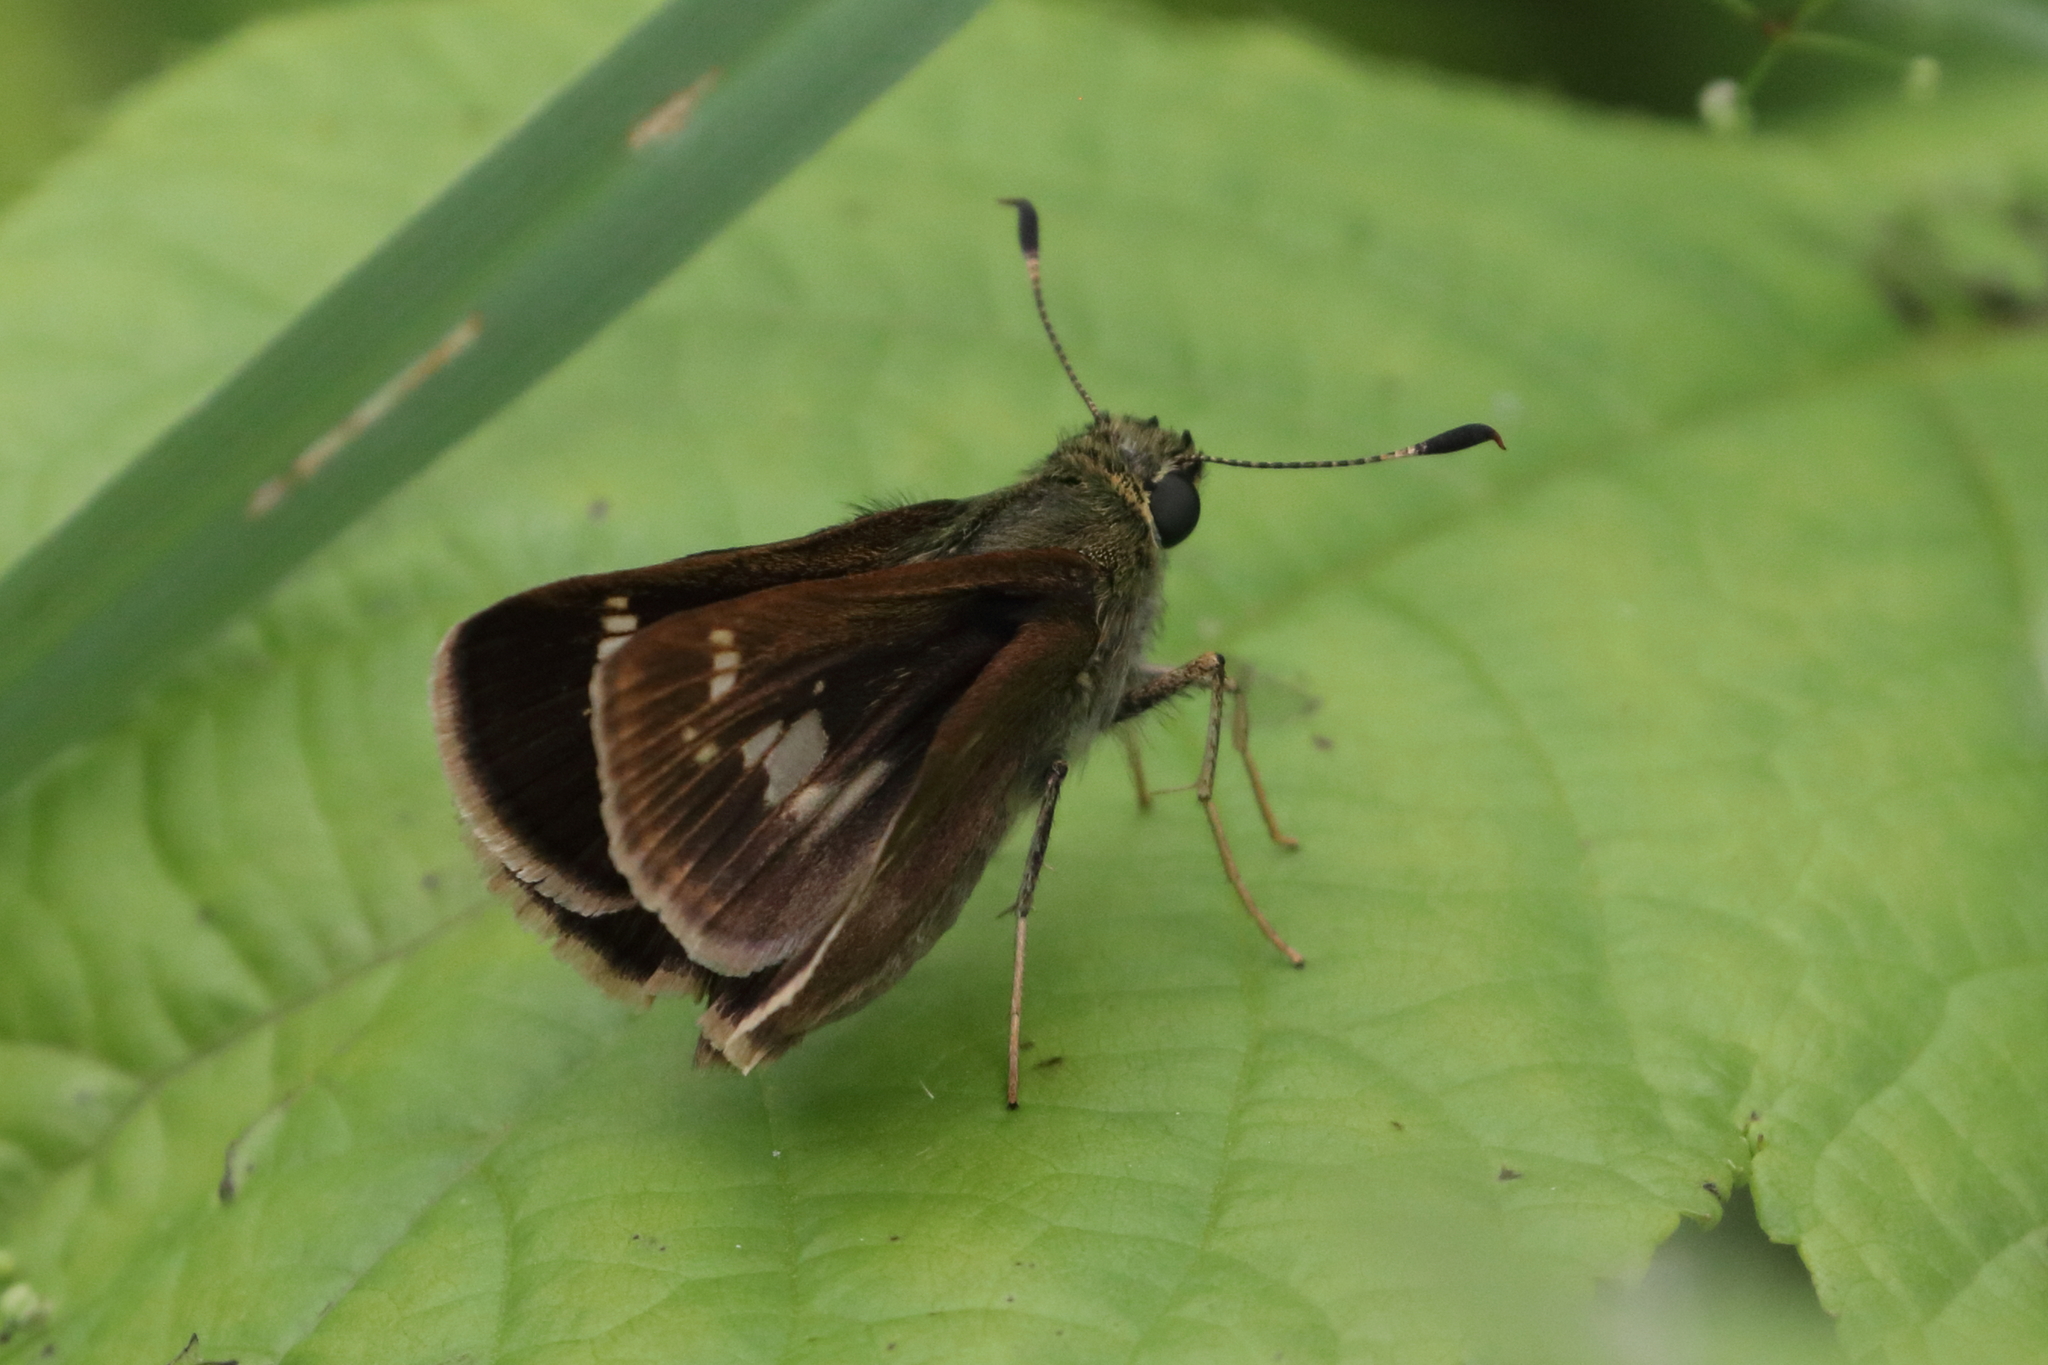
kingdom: Animalia
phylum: Arthropoda
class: Insecta
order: Lepidoptera
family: Hesperiidae
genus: Vernia
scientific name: Vernia verna
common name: Little glassywing
